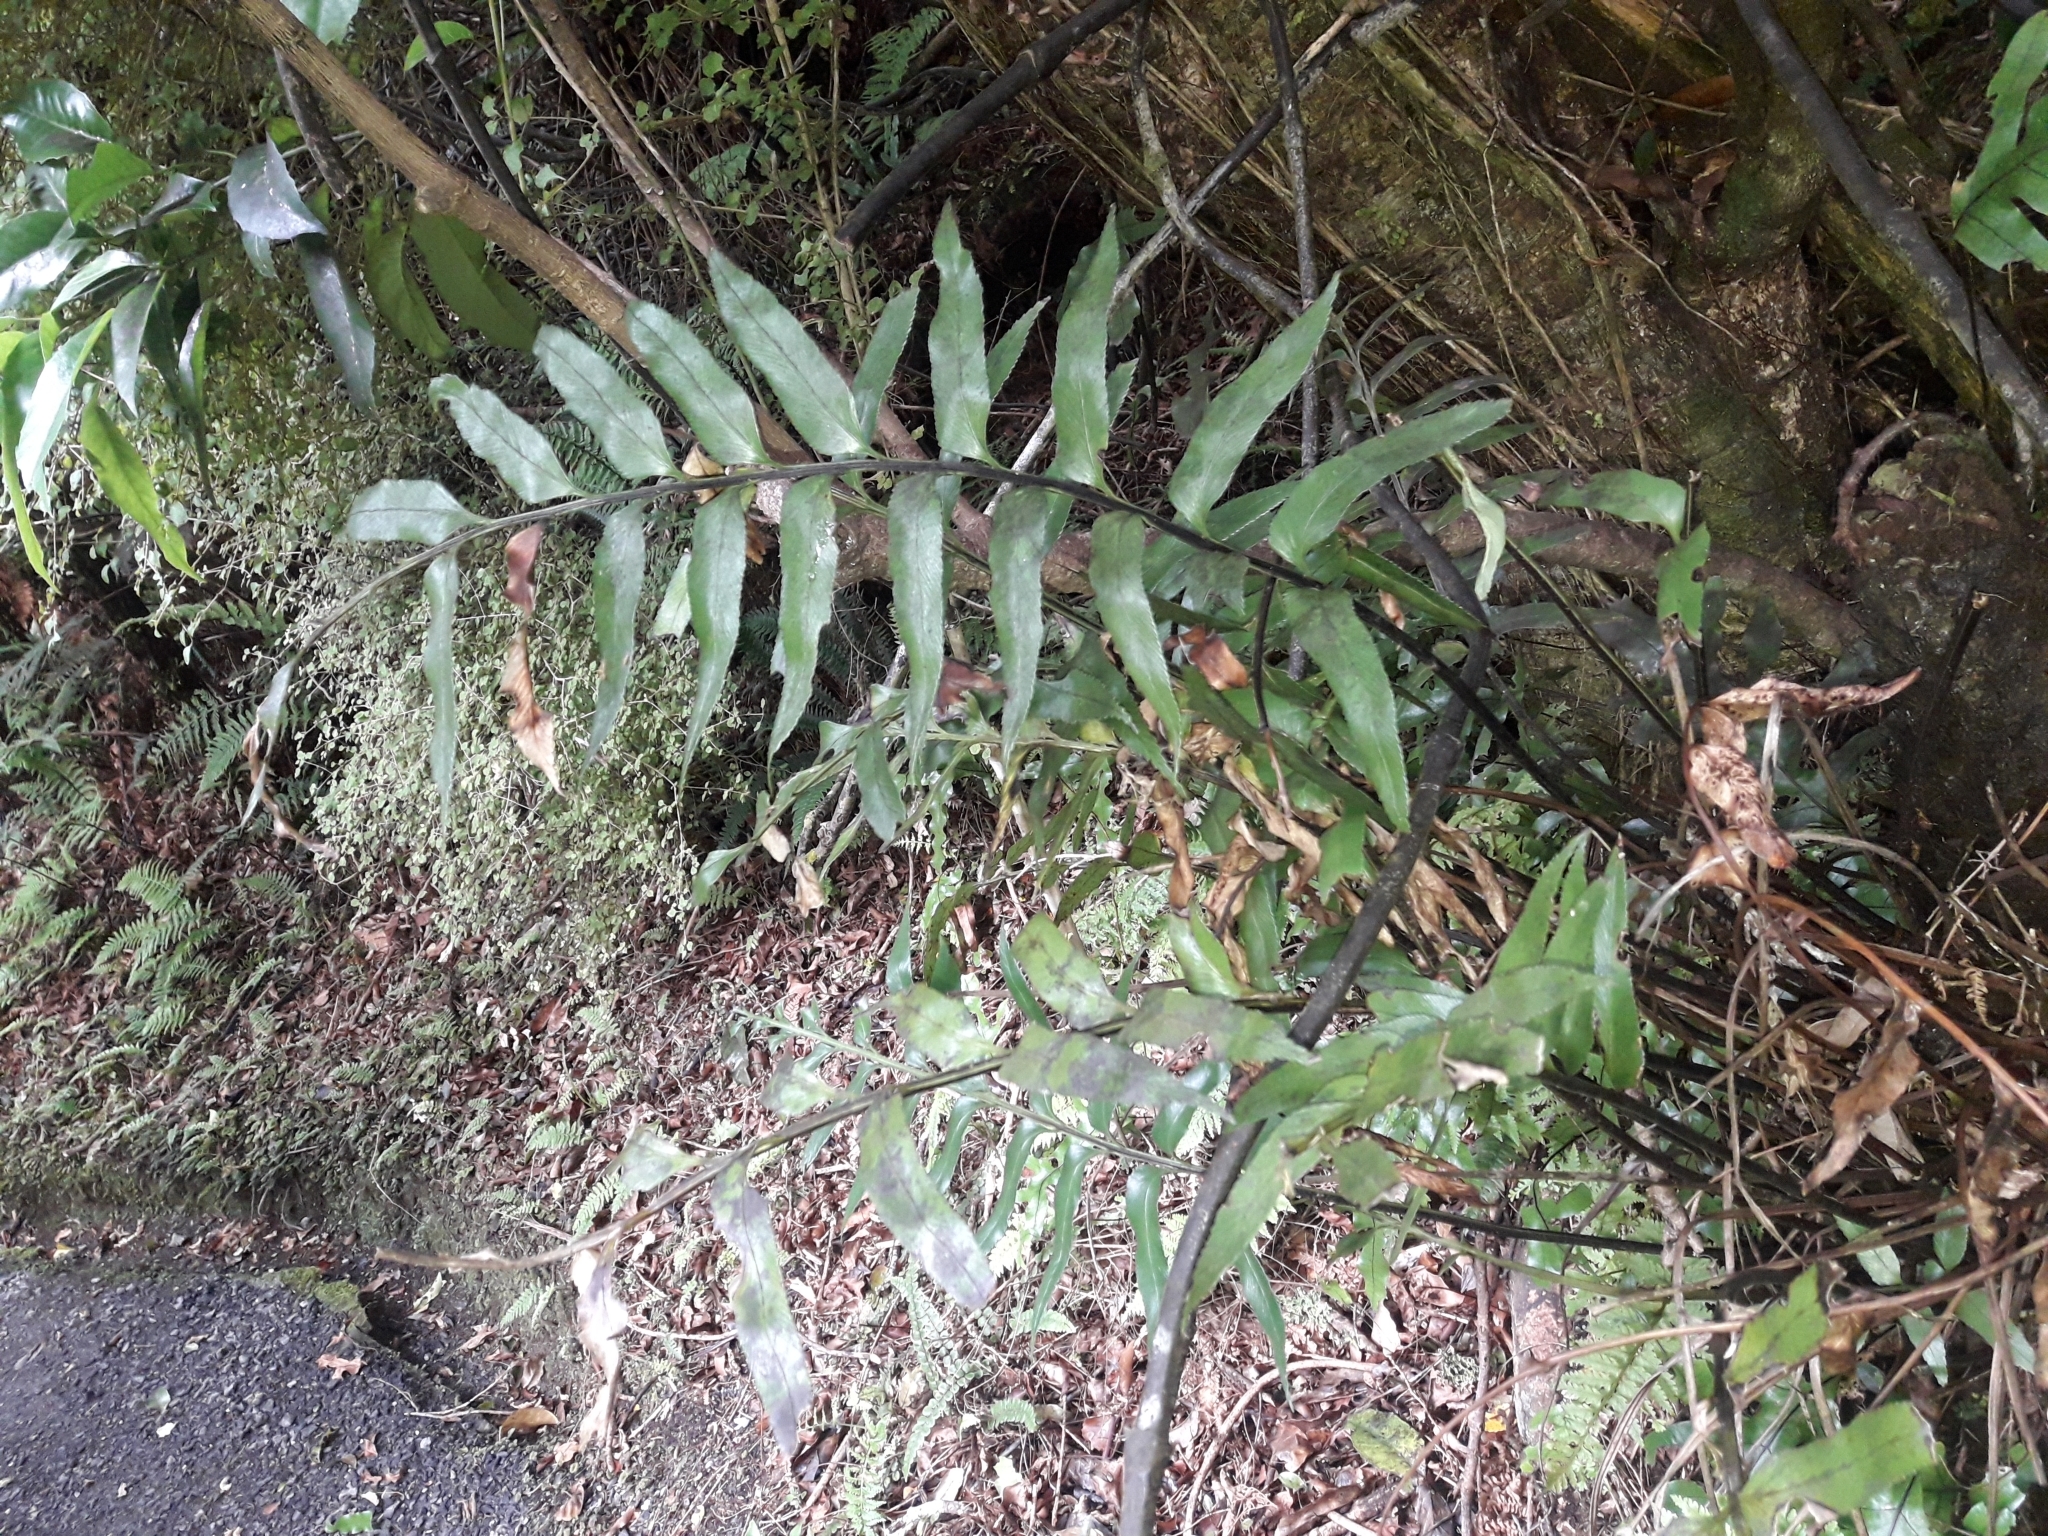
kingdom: Plantae
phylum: Tracheophyta
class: Polypodiopsida
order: Polypodiales
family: Aspleniaceae
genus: Asplenium
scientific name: Asplenium obtusatum
